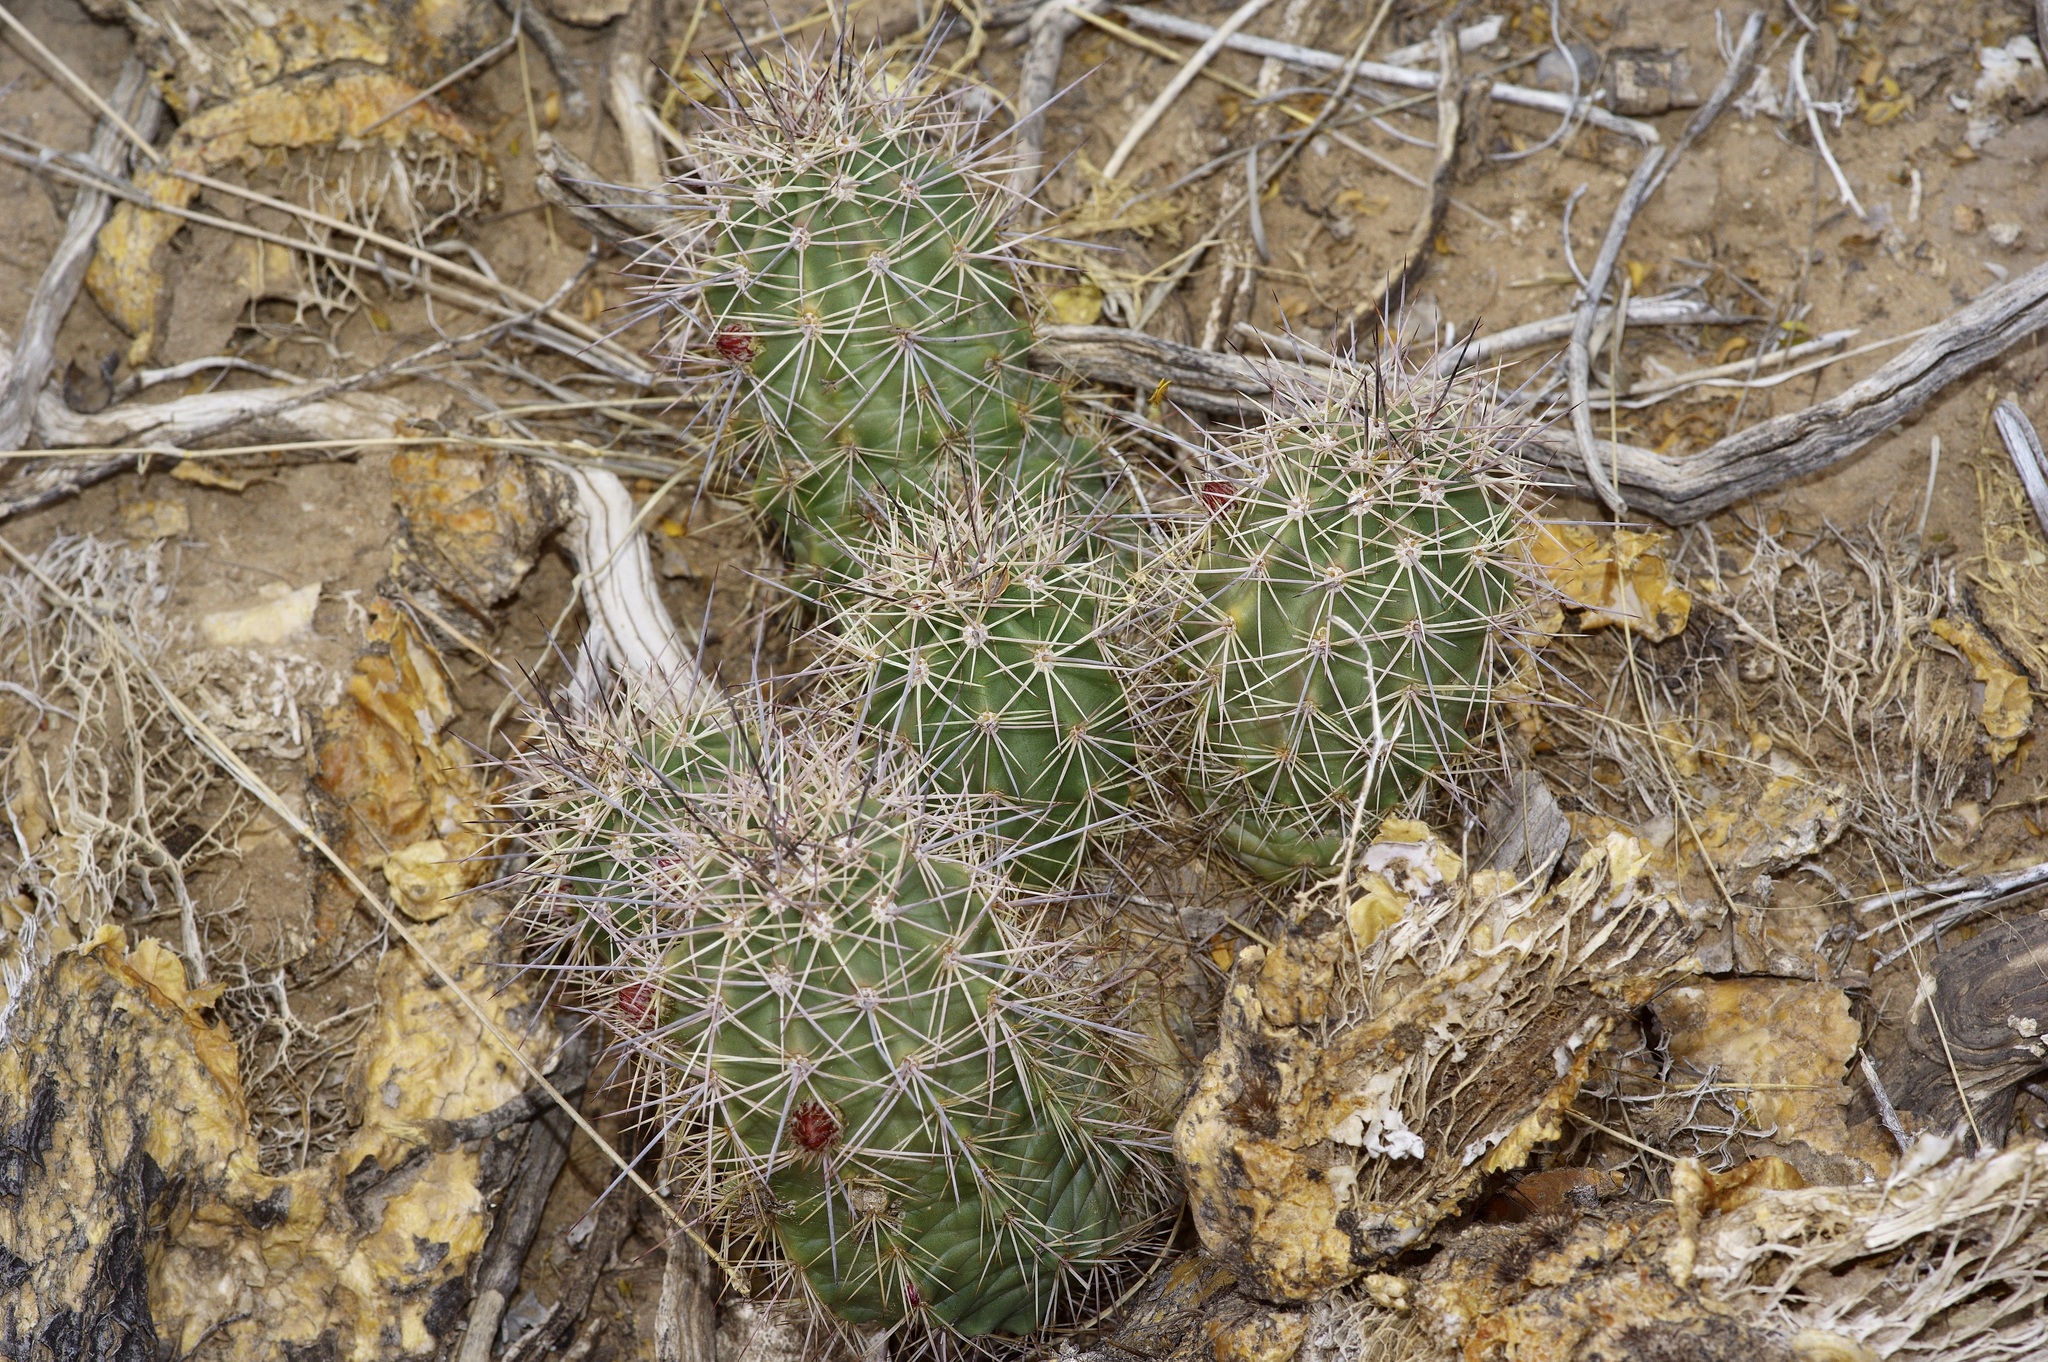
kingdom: Plantae
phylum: Tracheophyta
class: Magnoliopsida
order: Caryophyllales
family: Cactaceae
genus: Echinocereus
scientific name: Echinocereus coccineus
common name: Scarlet hedgehog cactus
